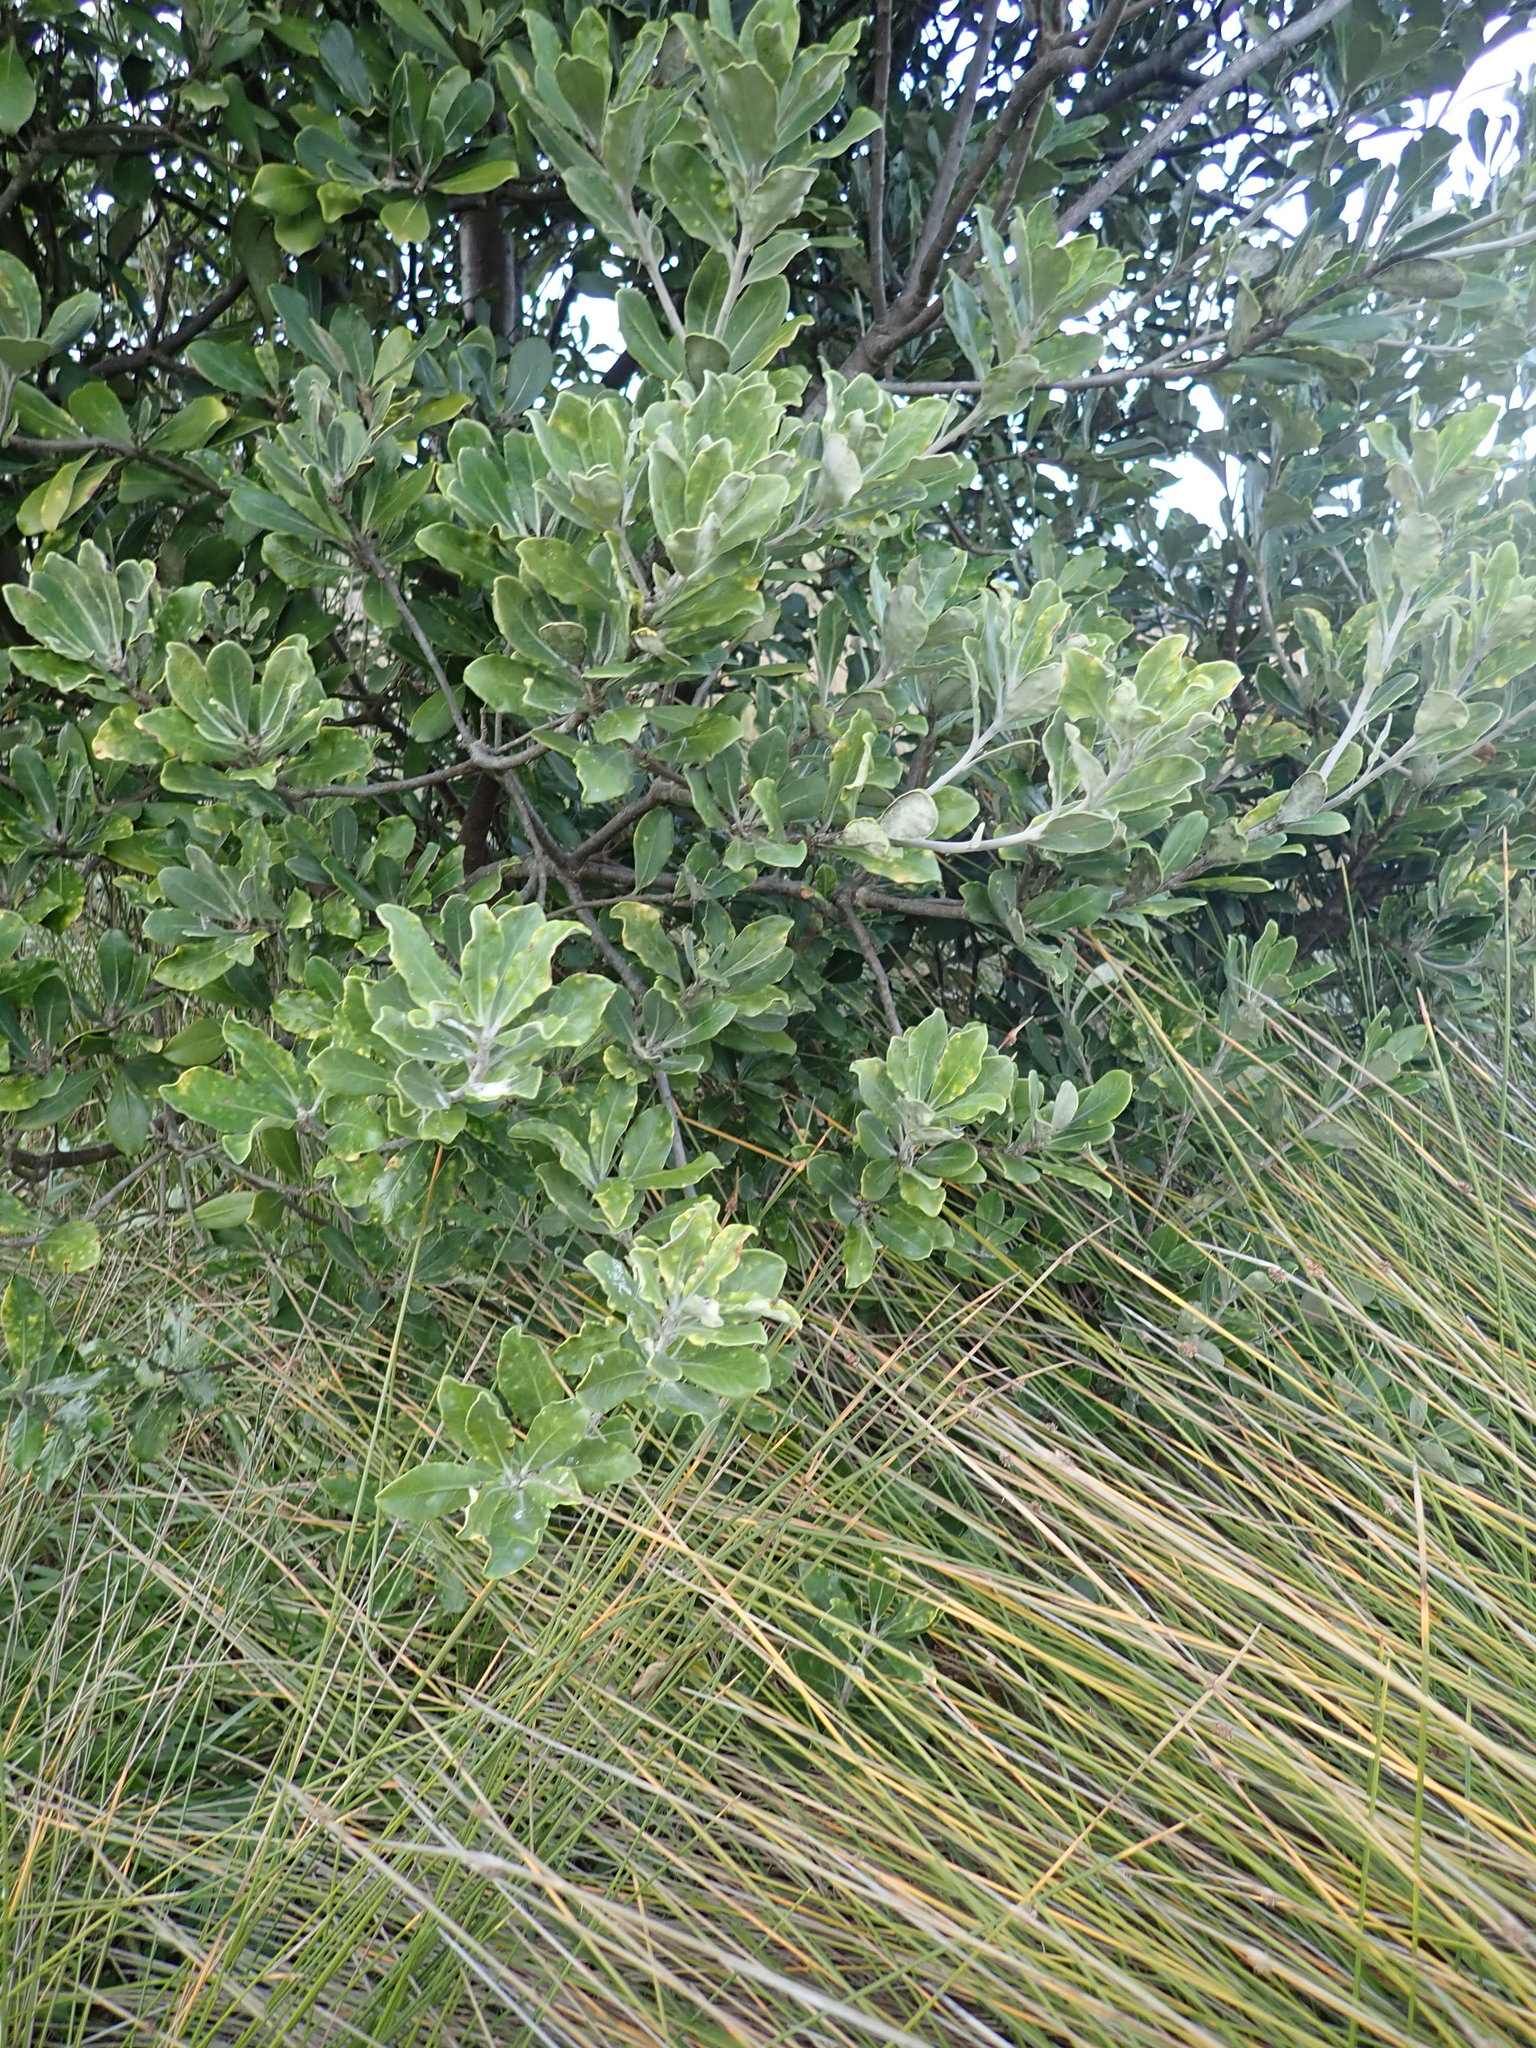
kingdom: Plantae
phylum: Tracheophyta
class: Magnoliopsida
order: Apiales
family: Pittosporaceae
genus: Pittosporum
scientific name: Pittosporum crassifolium
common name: Karo
